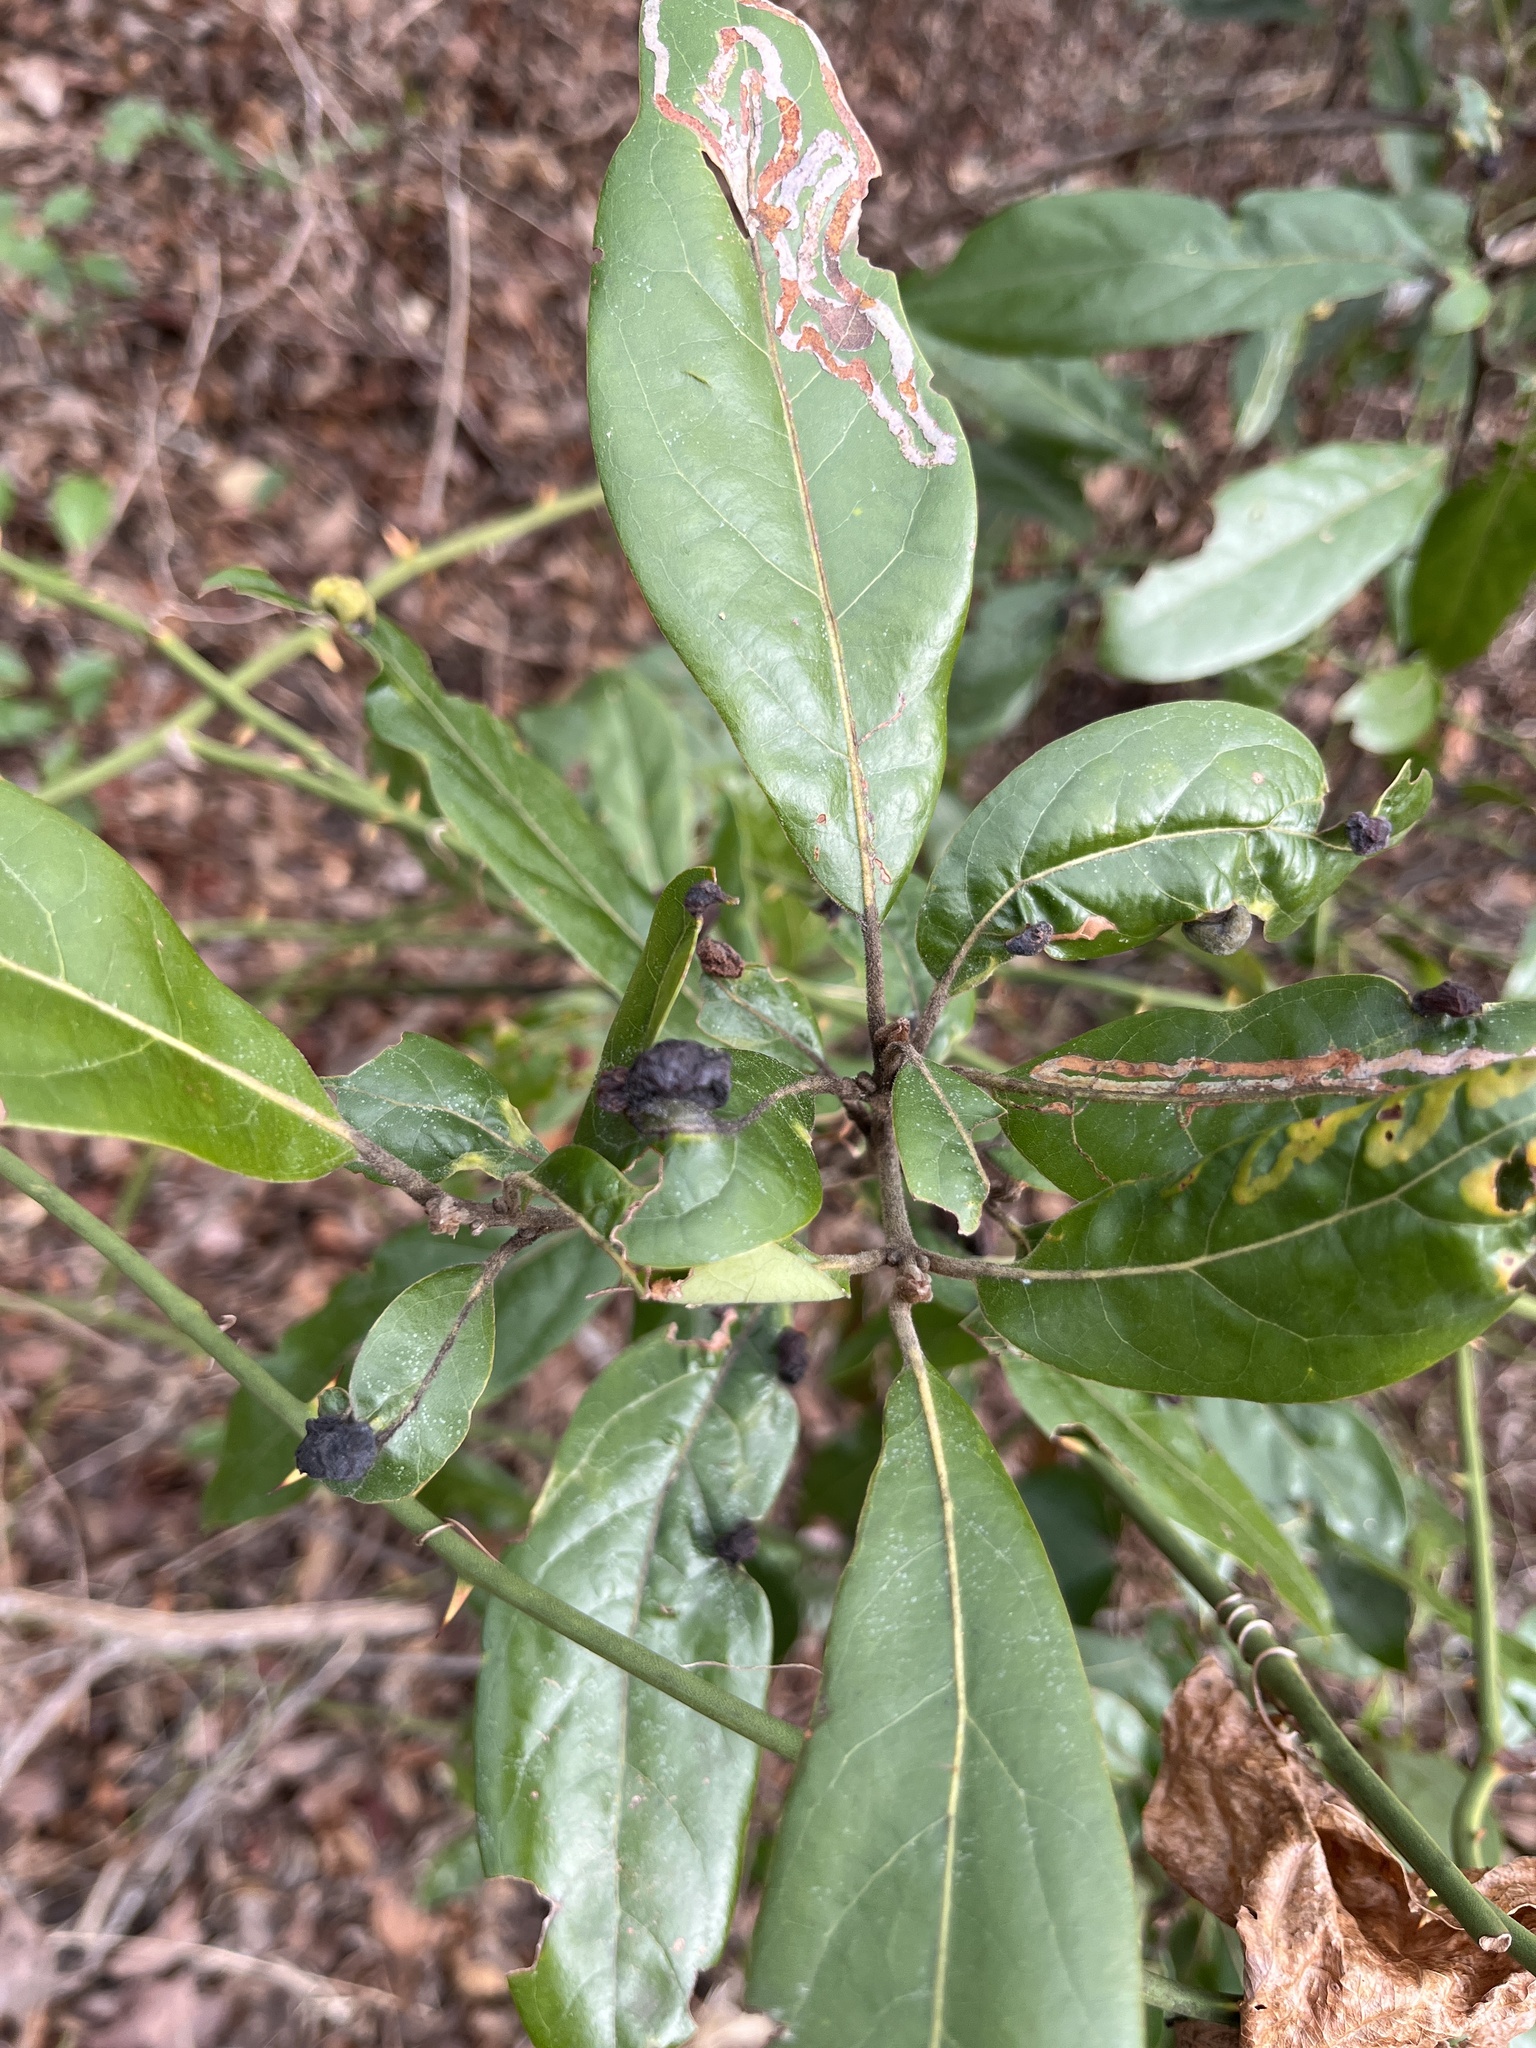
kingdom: Plantae
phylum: Tracheophyta
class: Magnoliopsida
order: Laurales
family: Lauraceae
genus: Persea
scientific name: Persea palustris
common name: Swampbay
